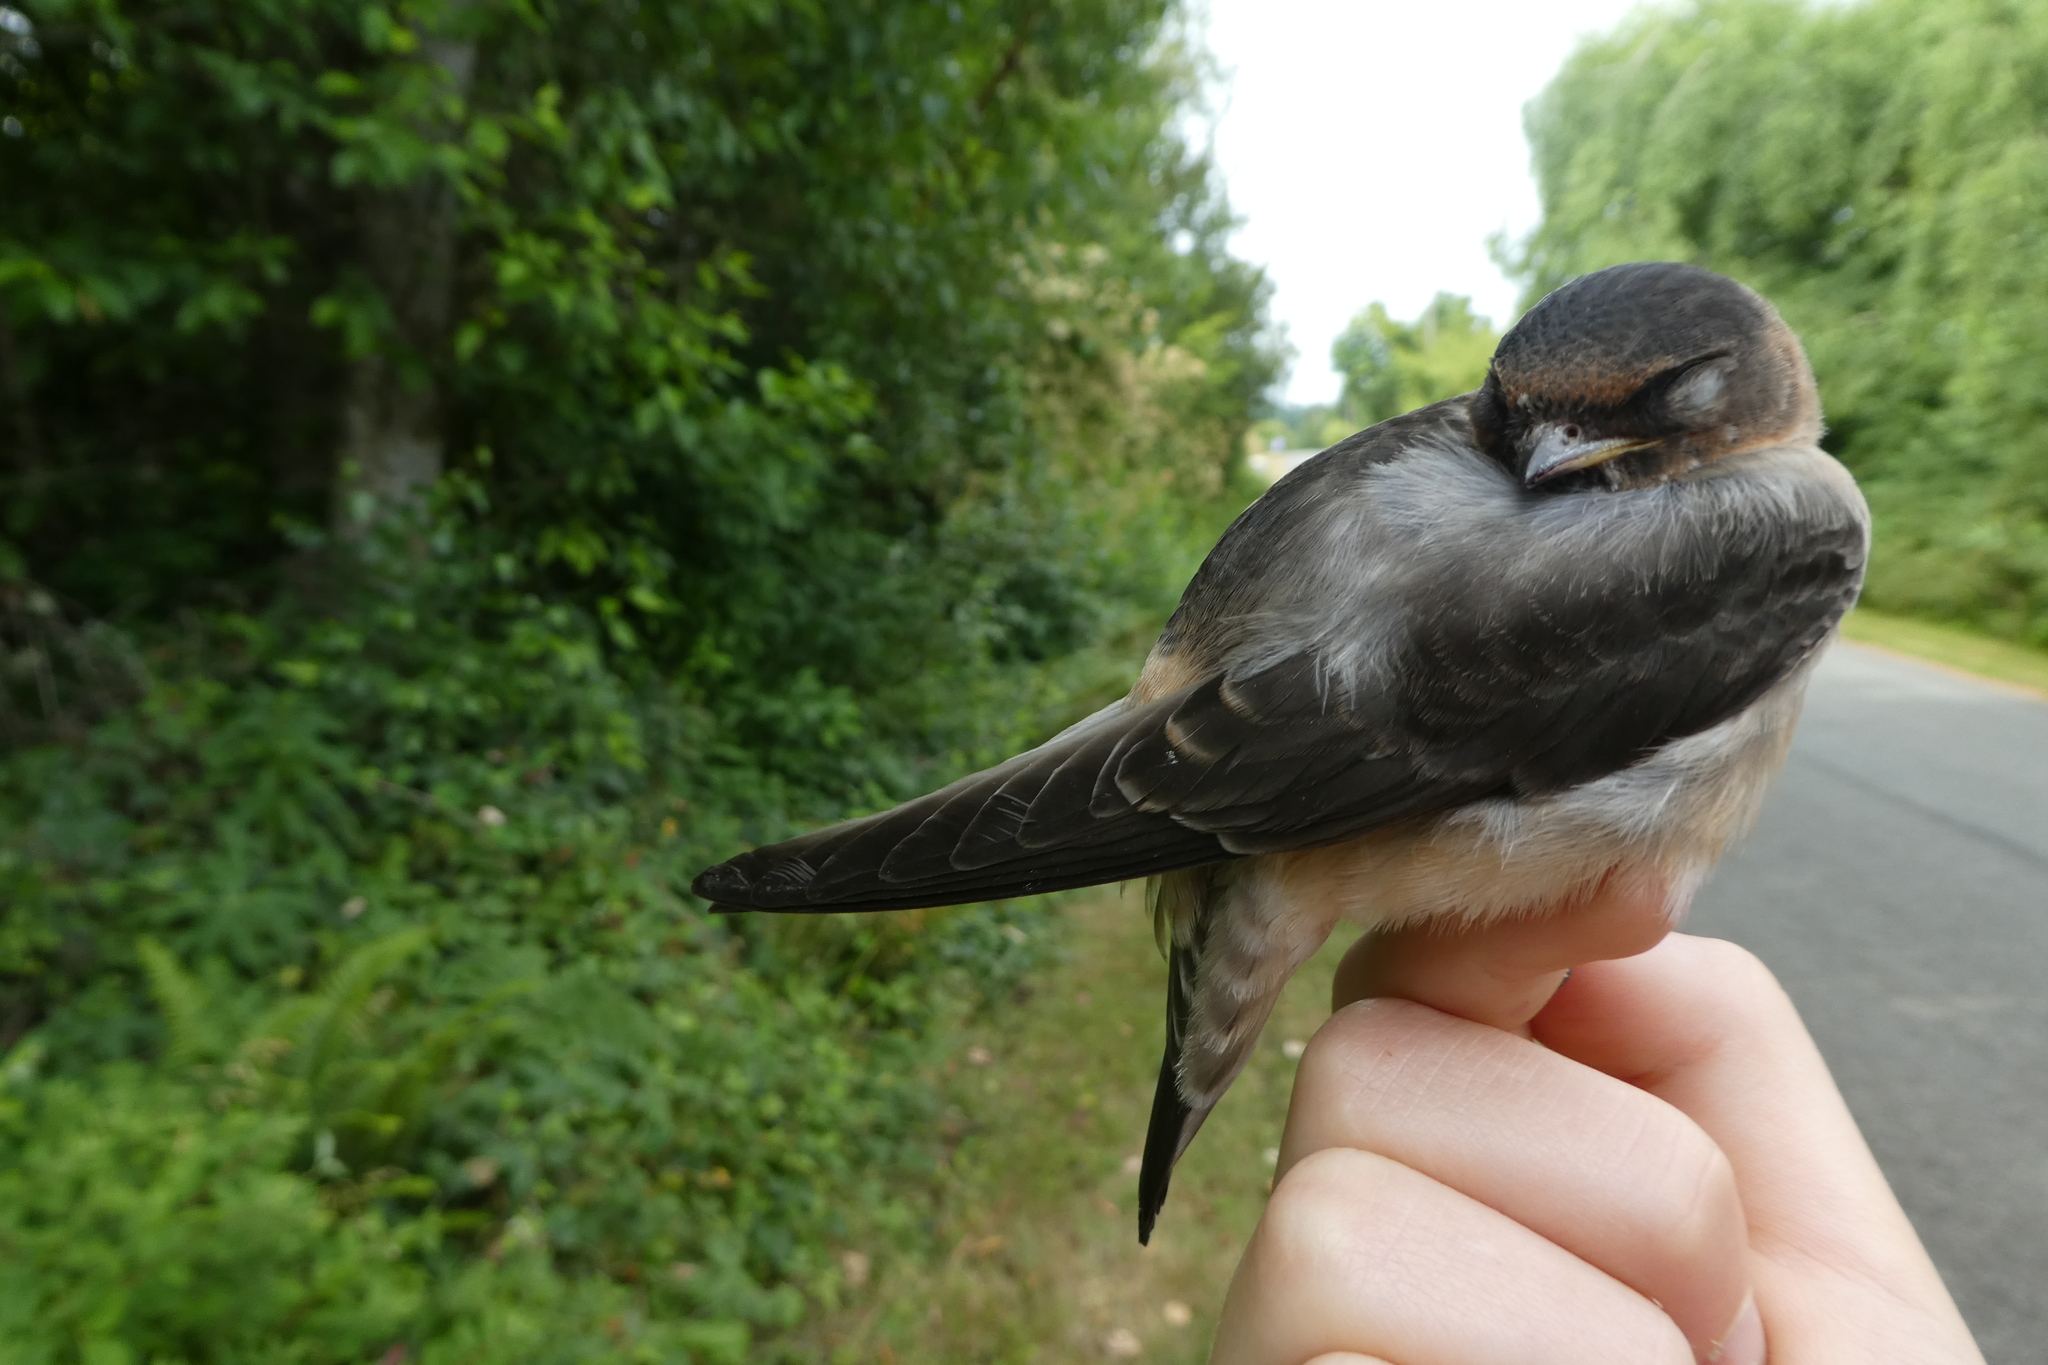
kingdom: Animalia
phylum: Chordata
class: Aves
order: Passeriformes
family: Hirundinidae
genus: Hirundo
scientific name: Hirundo rustica
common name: Barn swallow
